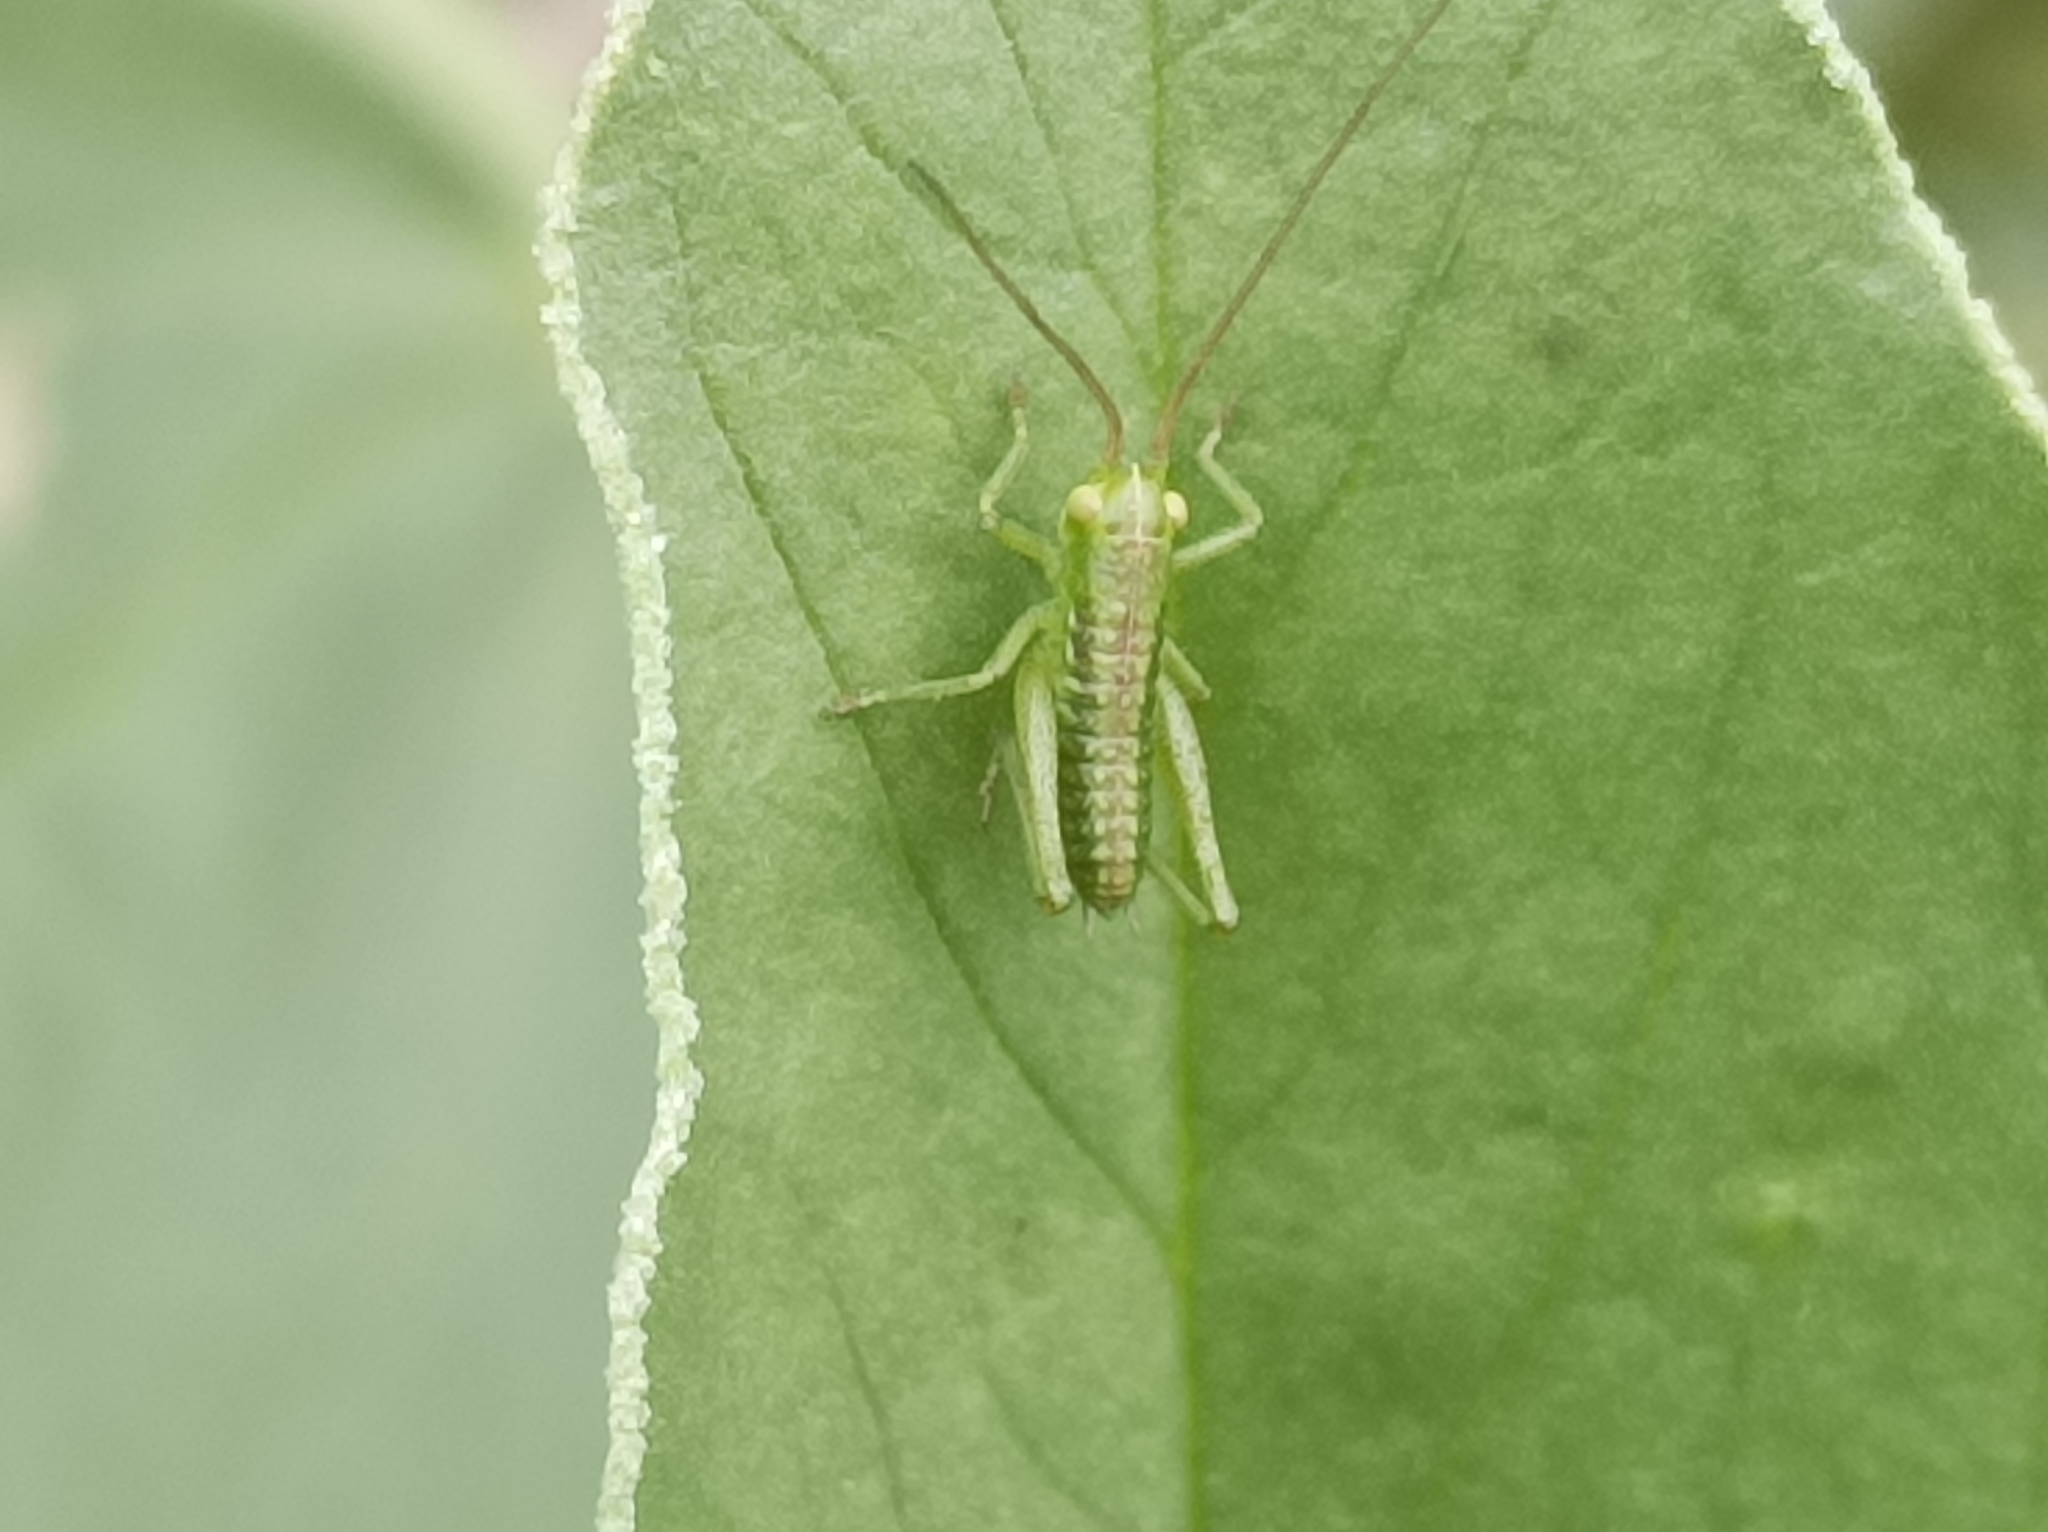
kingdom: Animalia
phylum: Arthropoda
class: Insecta
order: Orthoptera
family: Tettigoniidae
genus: Tettigonia
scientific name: Tettigonia viridissima
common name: Great green bush-cricket
